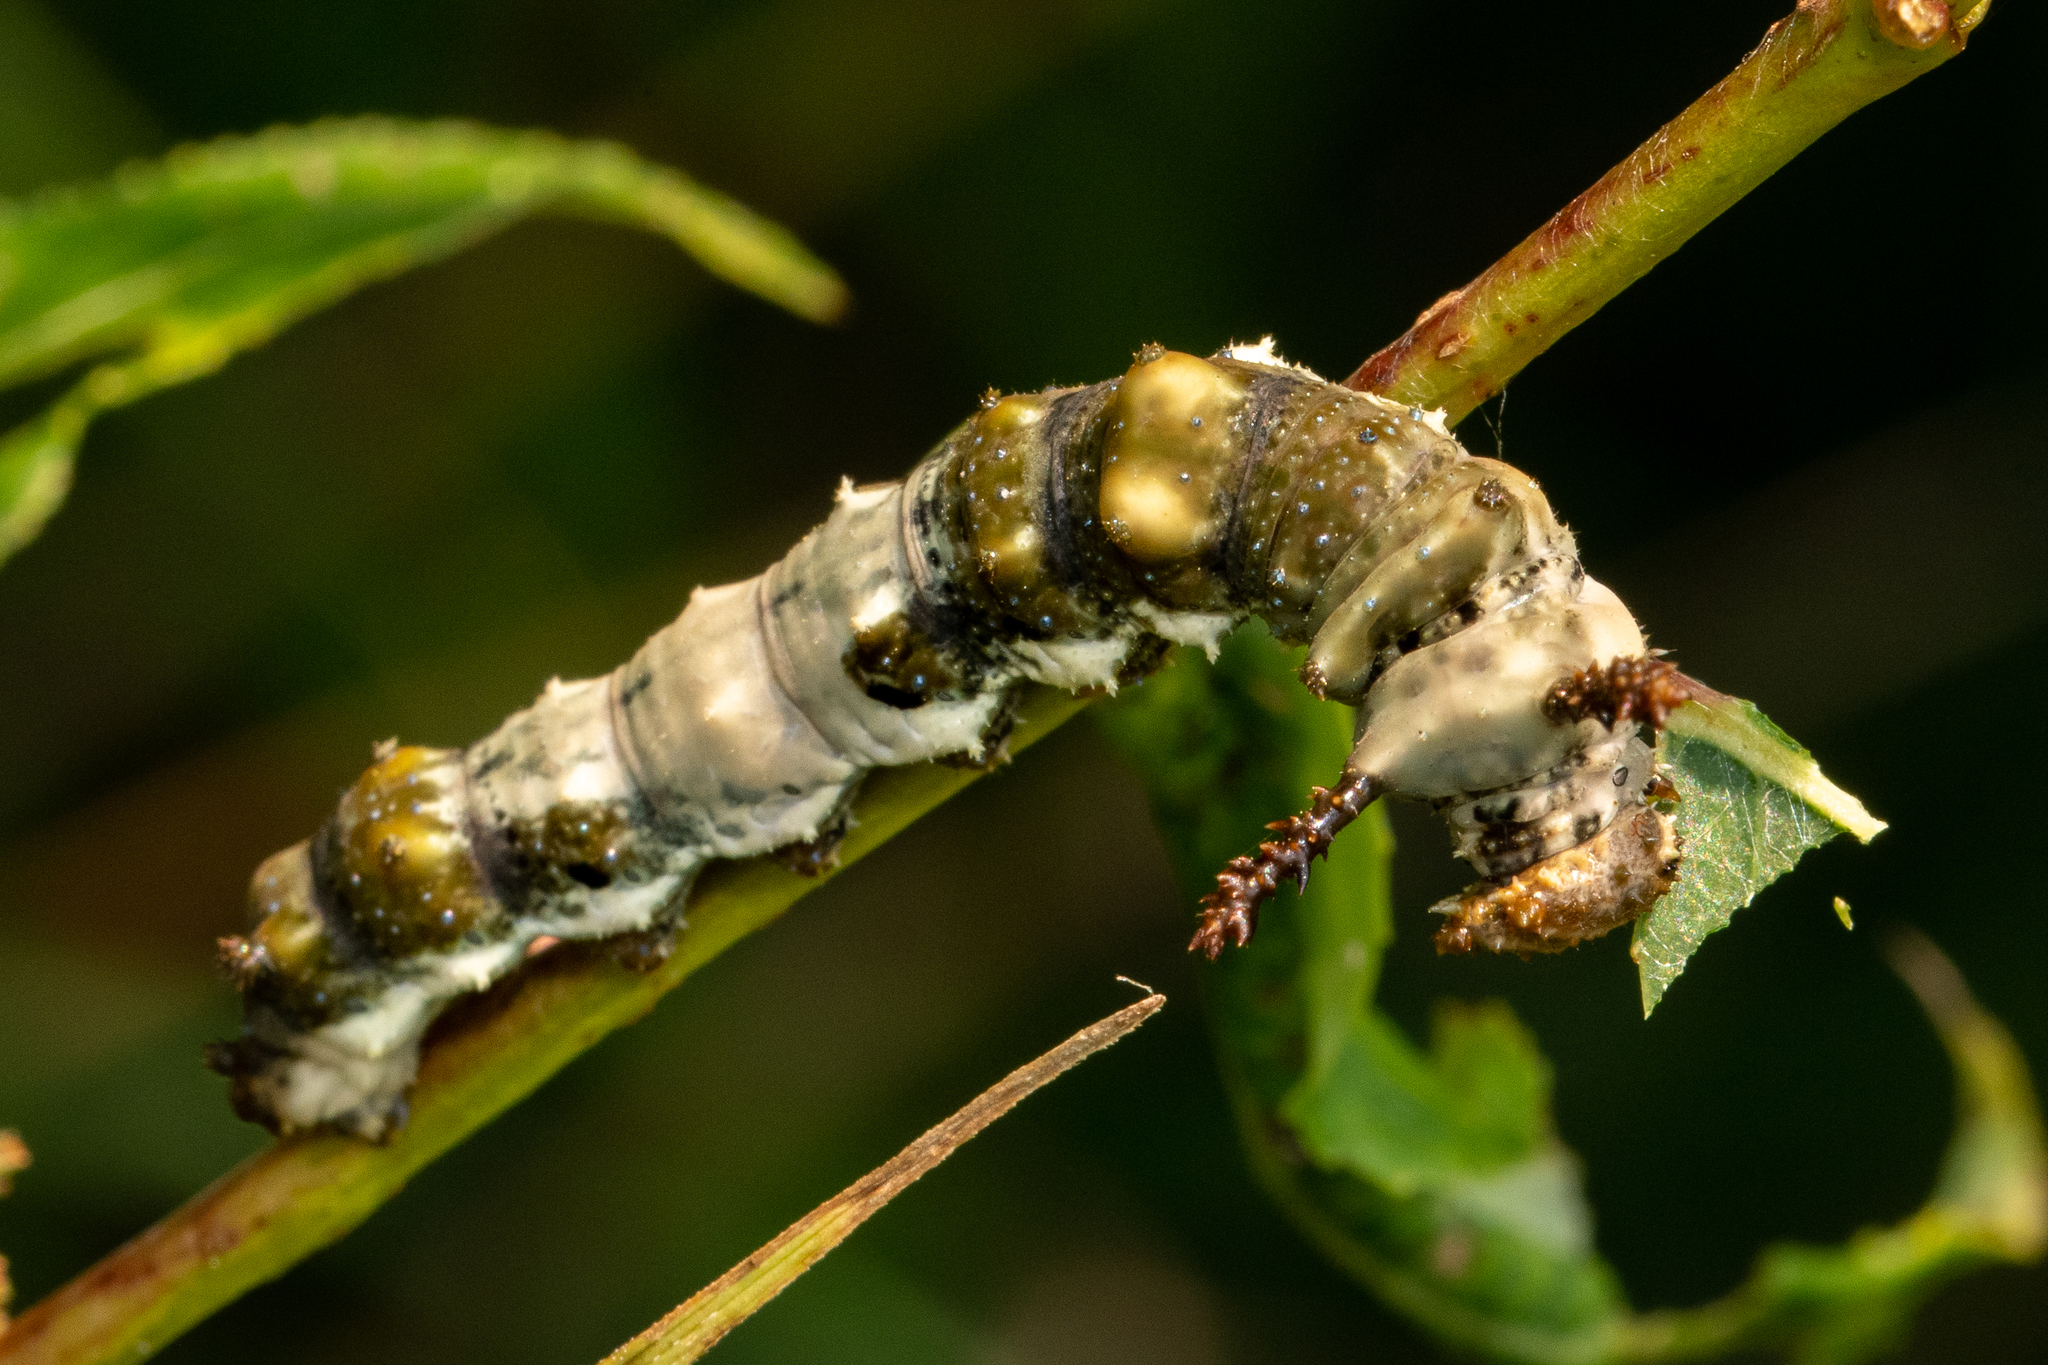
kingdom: Animalia
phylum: Arthropoda
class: Insecta
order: Lepidoptera
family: Nymphalidae
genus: Limenitis
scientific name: Limenitis archippus
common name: Viceroy
